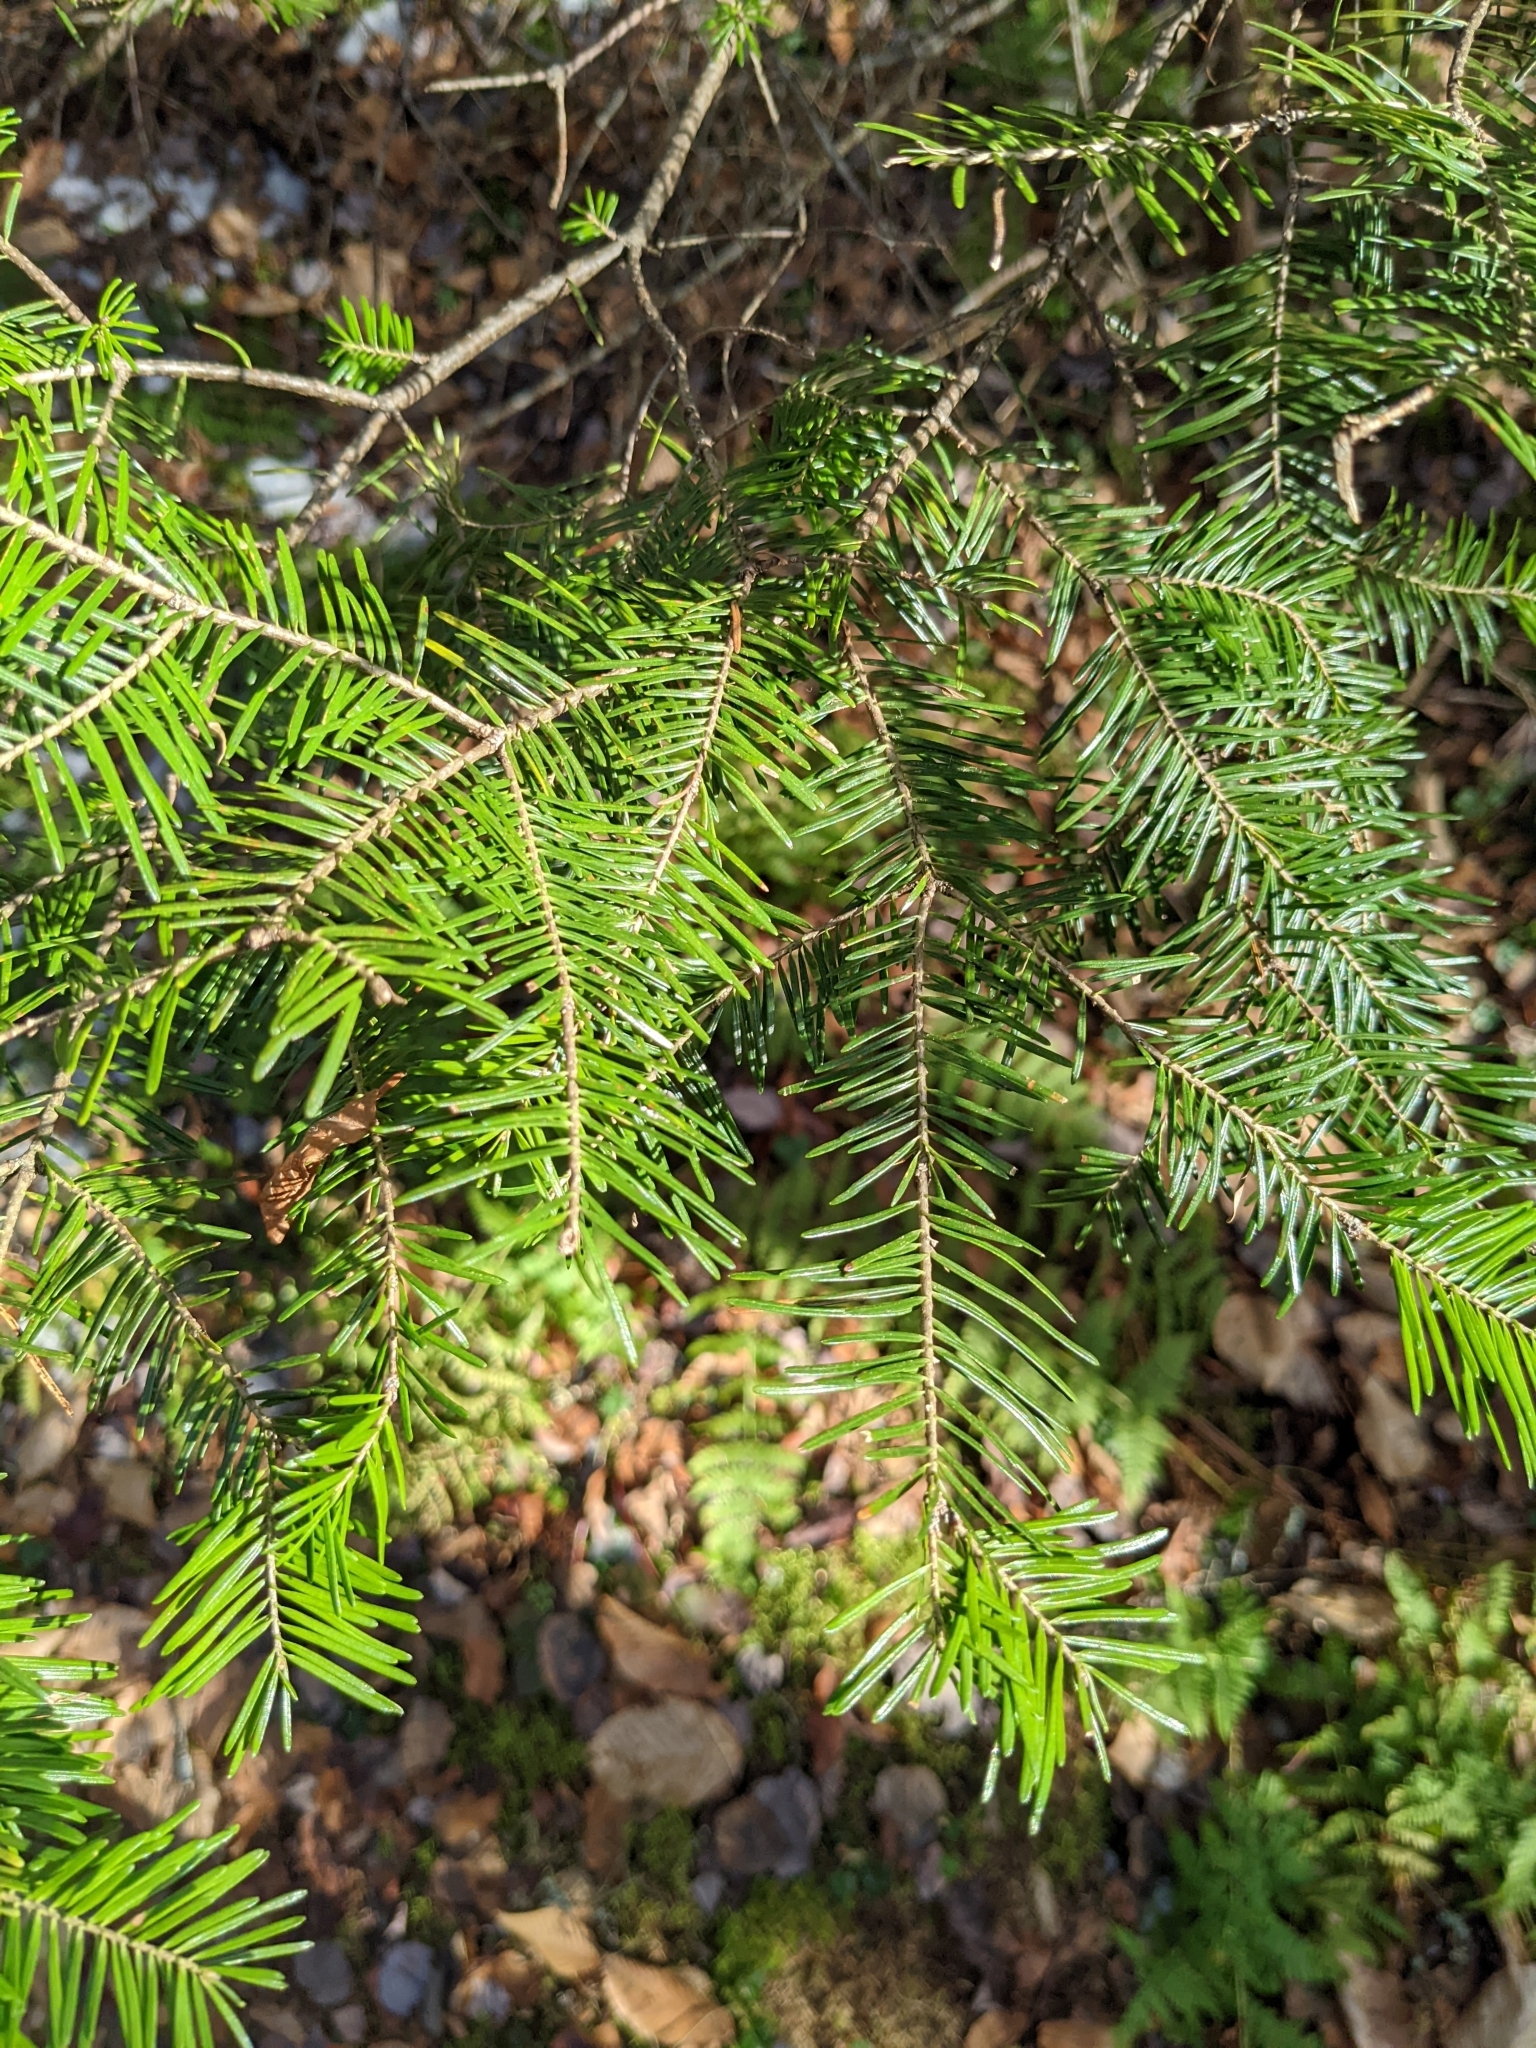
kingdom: Plantae
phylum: Tracheophyta
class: Pinopsida
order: Pinales
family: Pinaceae
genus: Abies
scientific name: Abies balsamea
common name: Balsam fir
